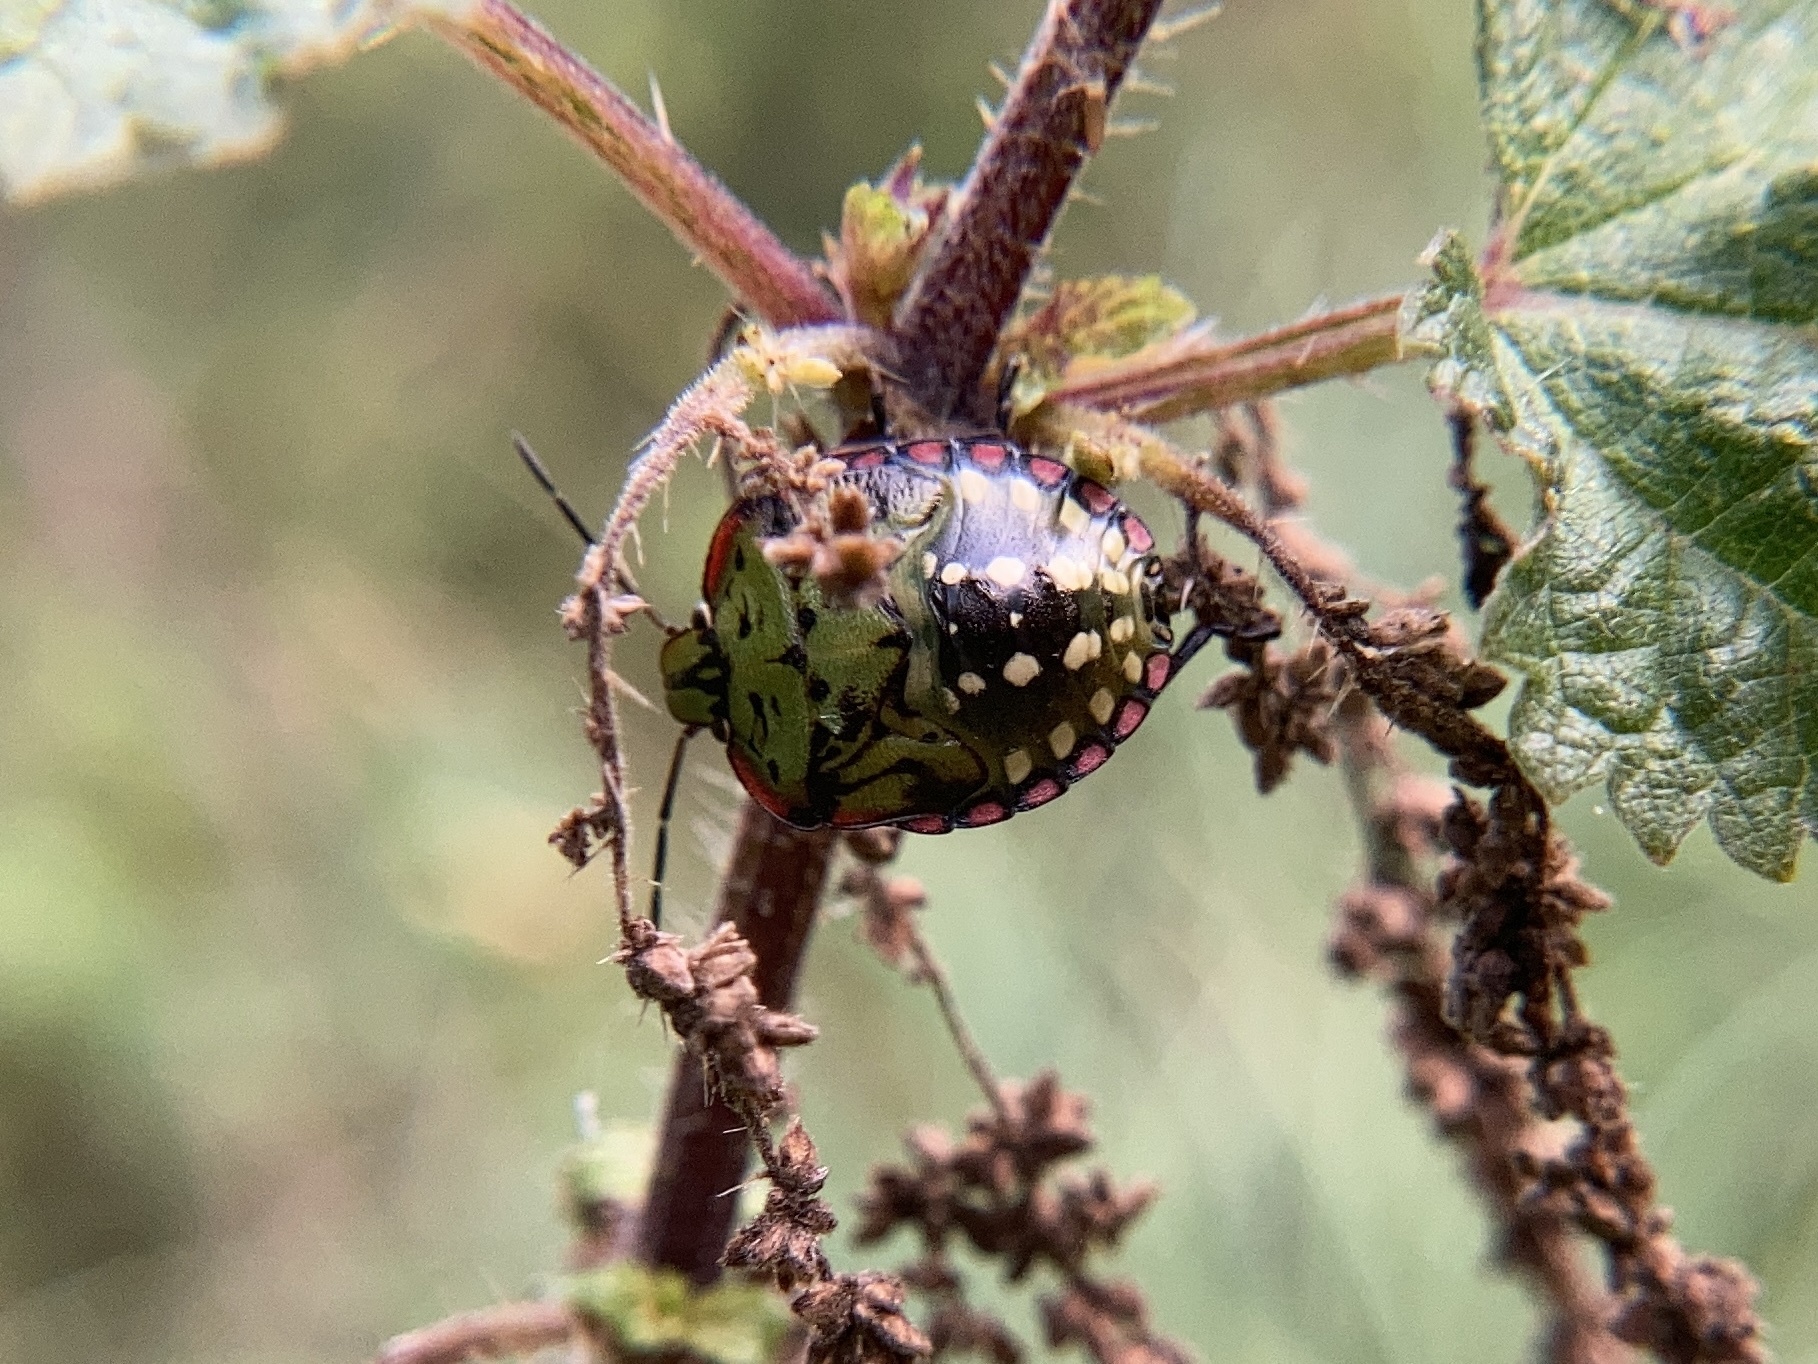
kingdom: Animalia
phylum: Arthropoda
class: Insecta
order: Hemiptera
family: Pentatomidae
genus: Nezara
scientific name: Nezara viridula
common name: Southern green stink bug
